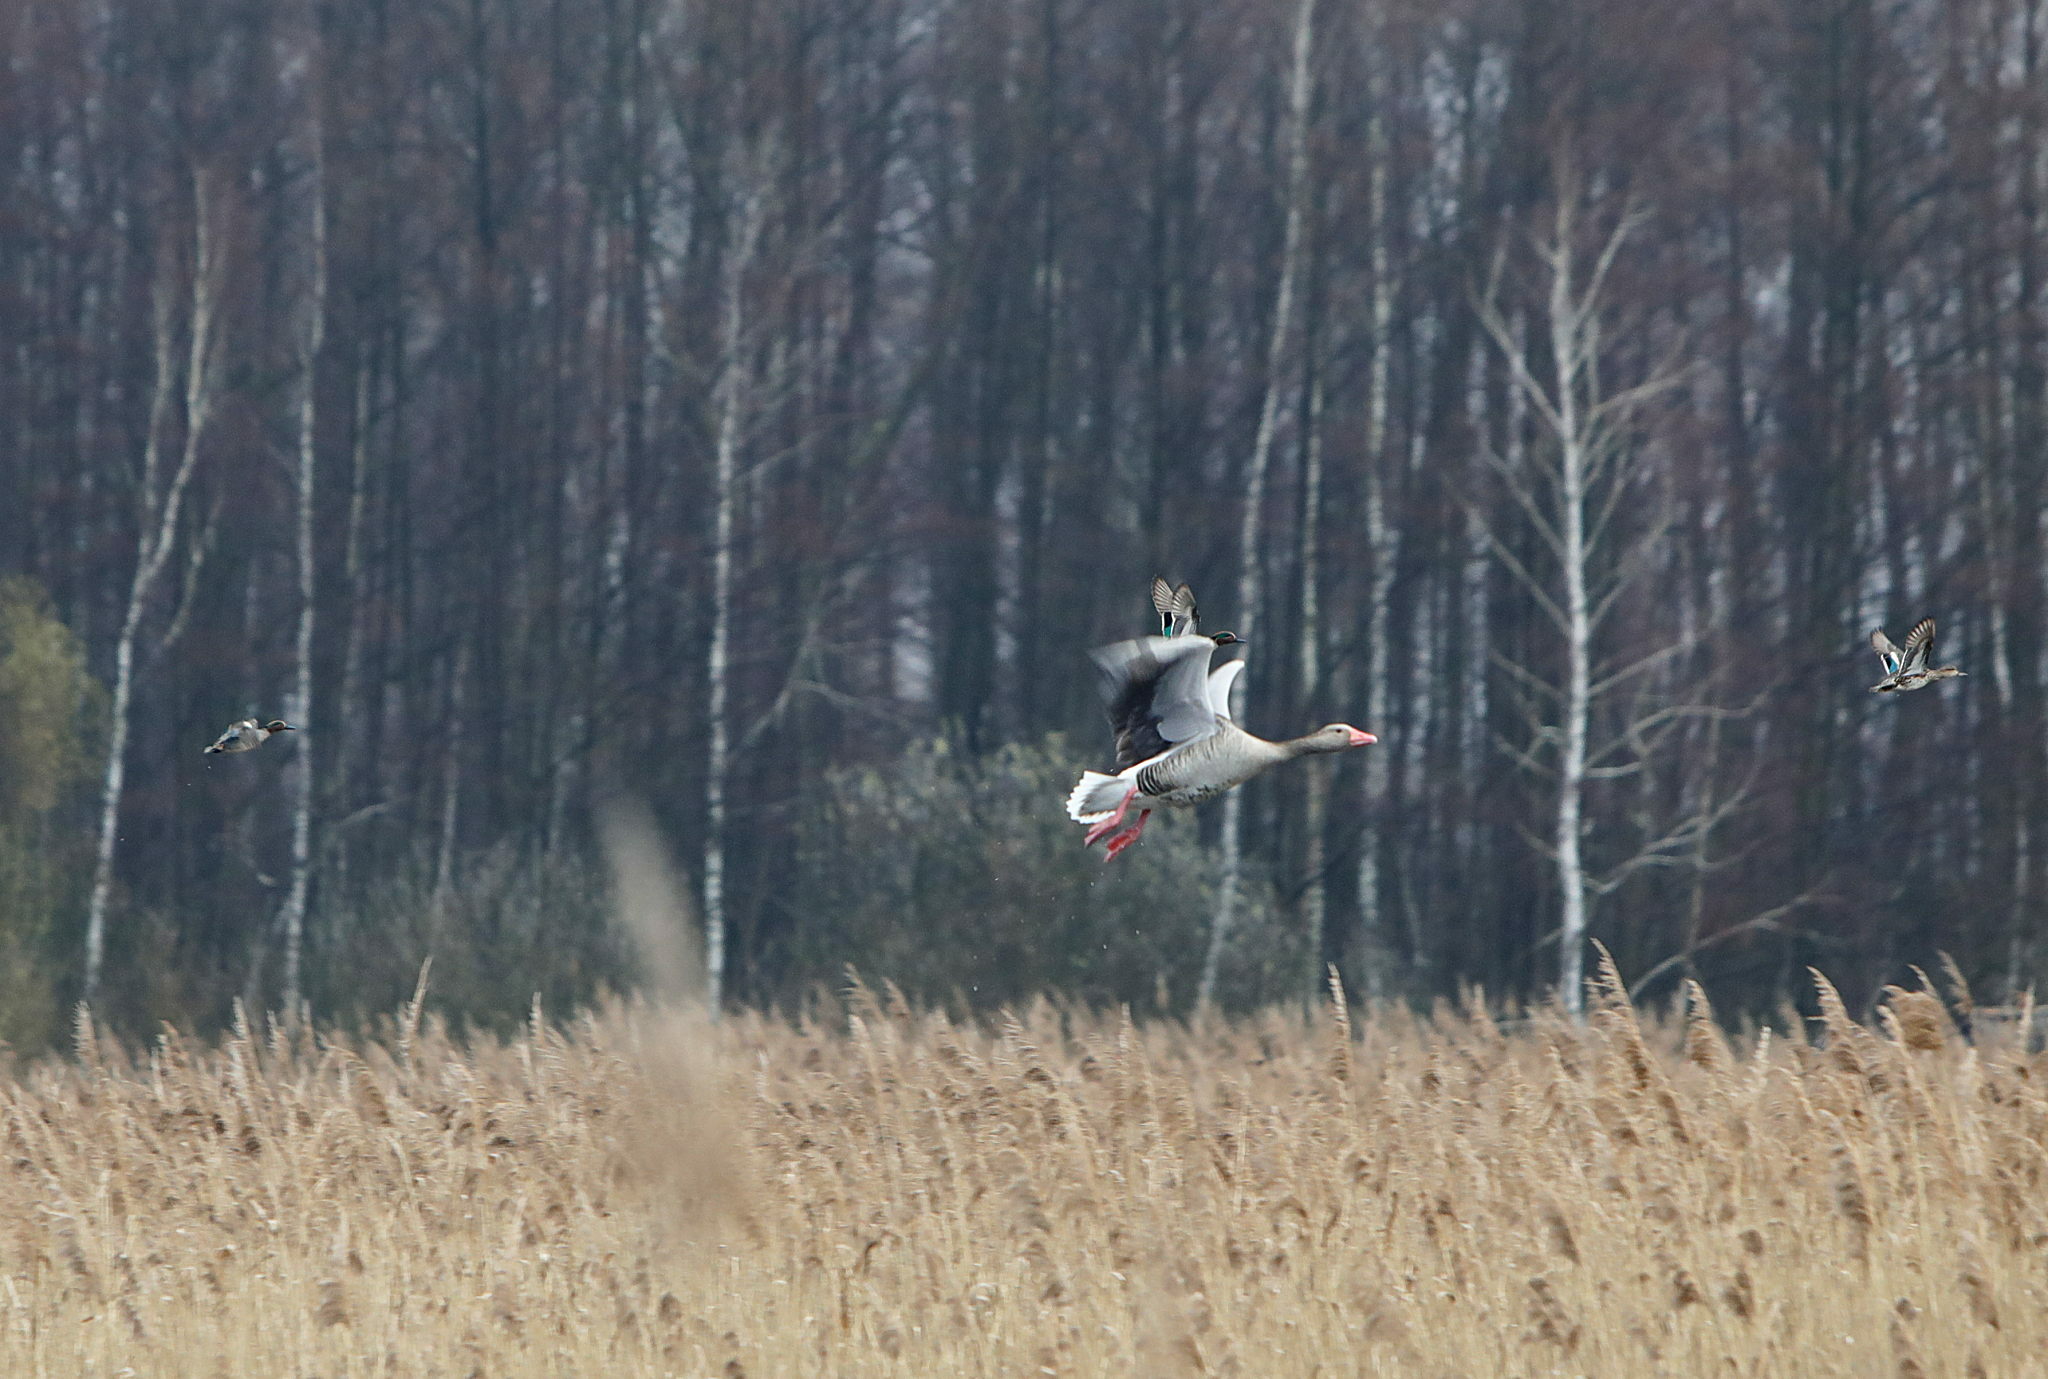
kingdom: Animalia
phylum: Chordata
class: Aves
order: Anseriformes
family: Anatidae
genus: Anas
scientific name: Anas crecca
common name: Eurasian teal
